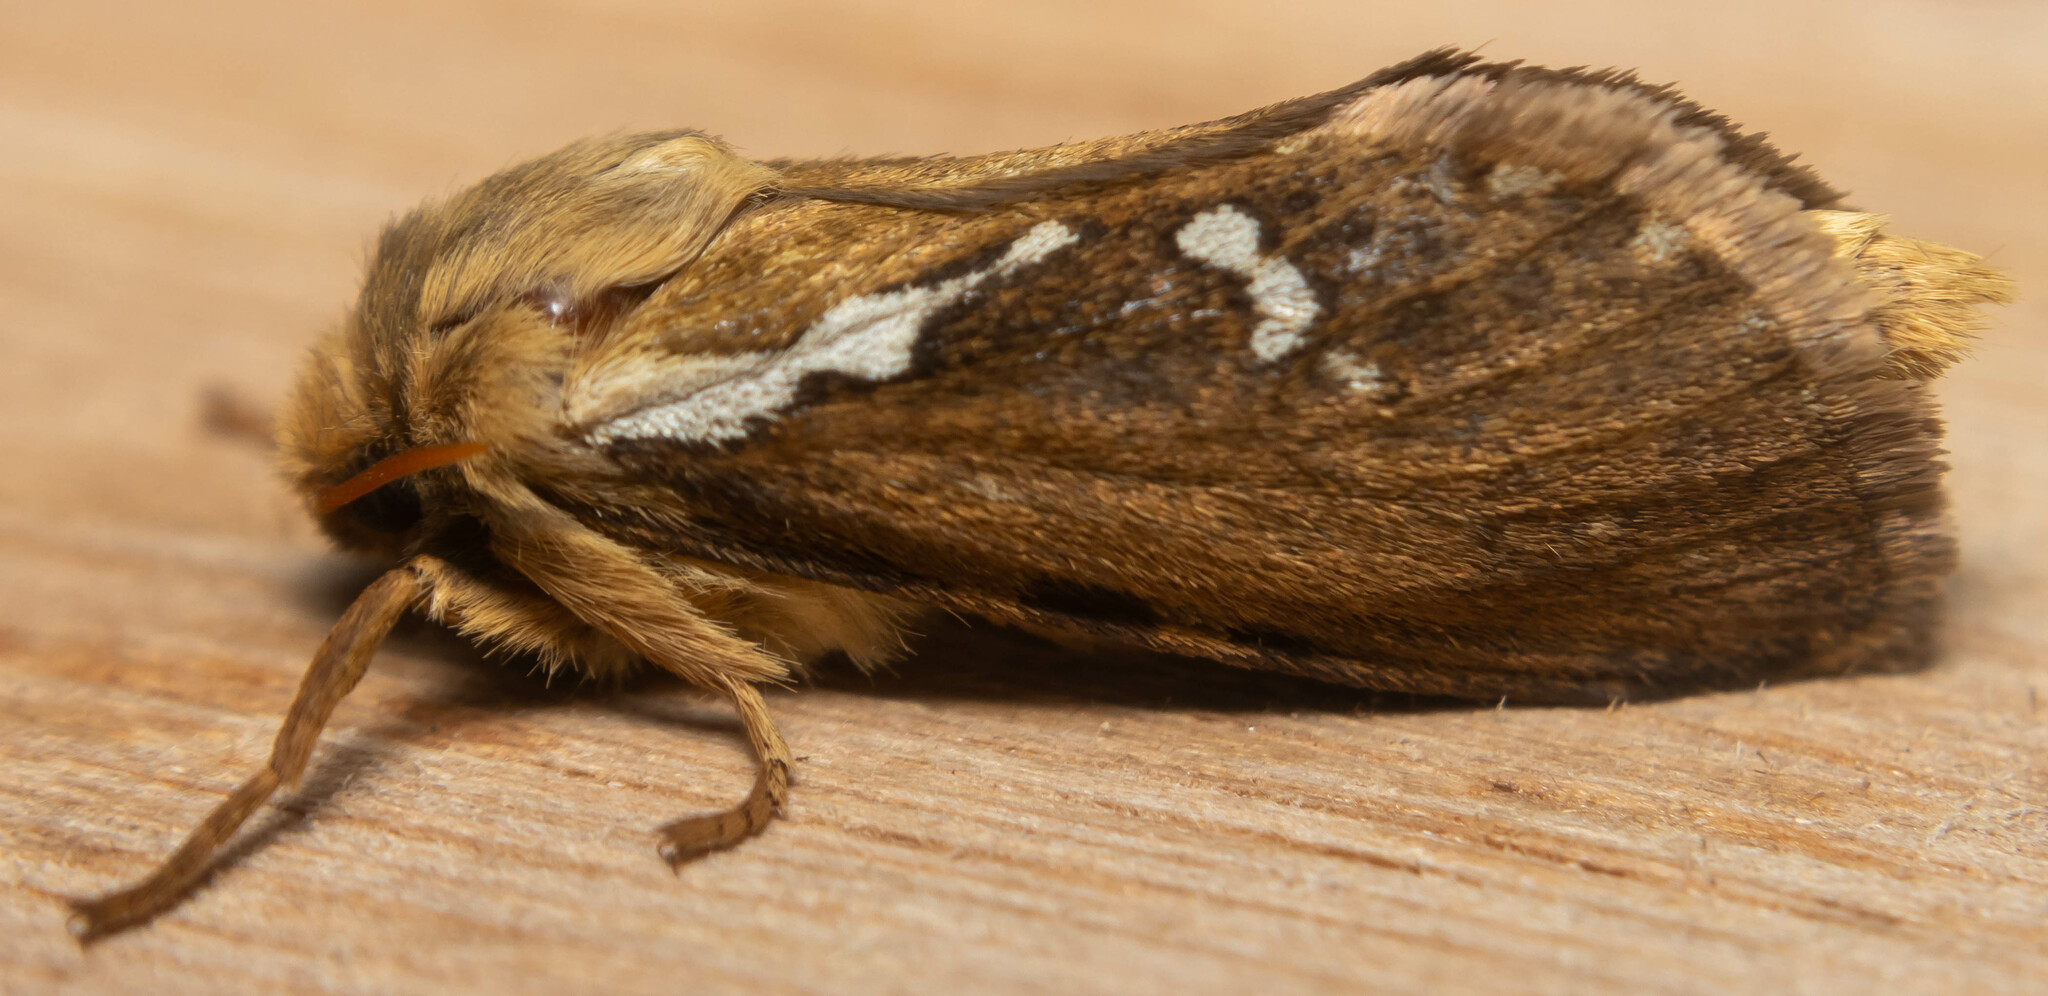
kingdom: Animalia
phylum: Arthropoda
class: Insecta
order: Lepidoptera
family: Hepialidae
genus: Korscheltellus
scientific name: Korscheltellus lupulina
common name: Common swift
